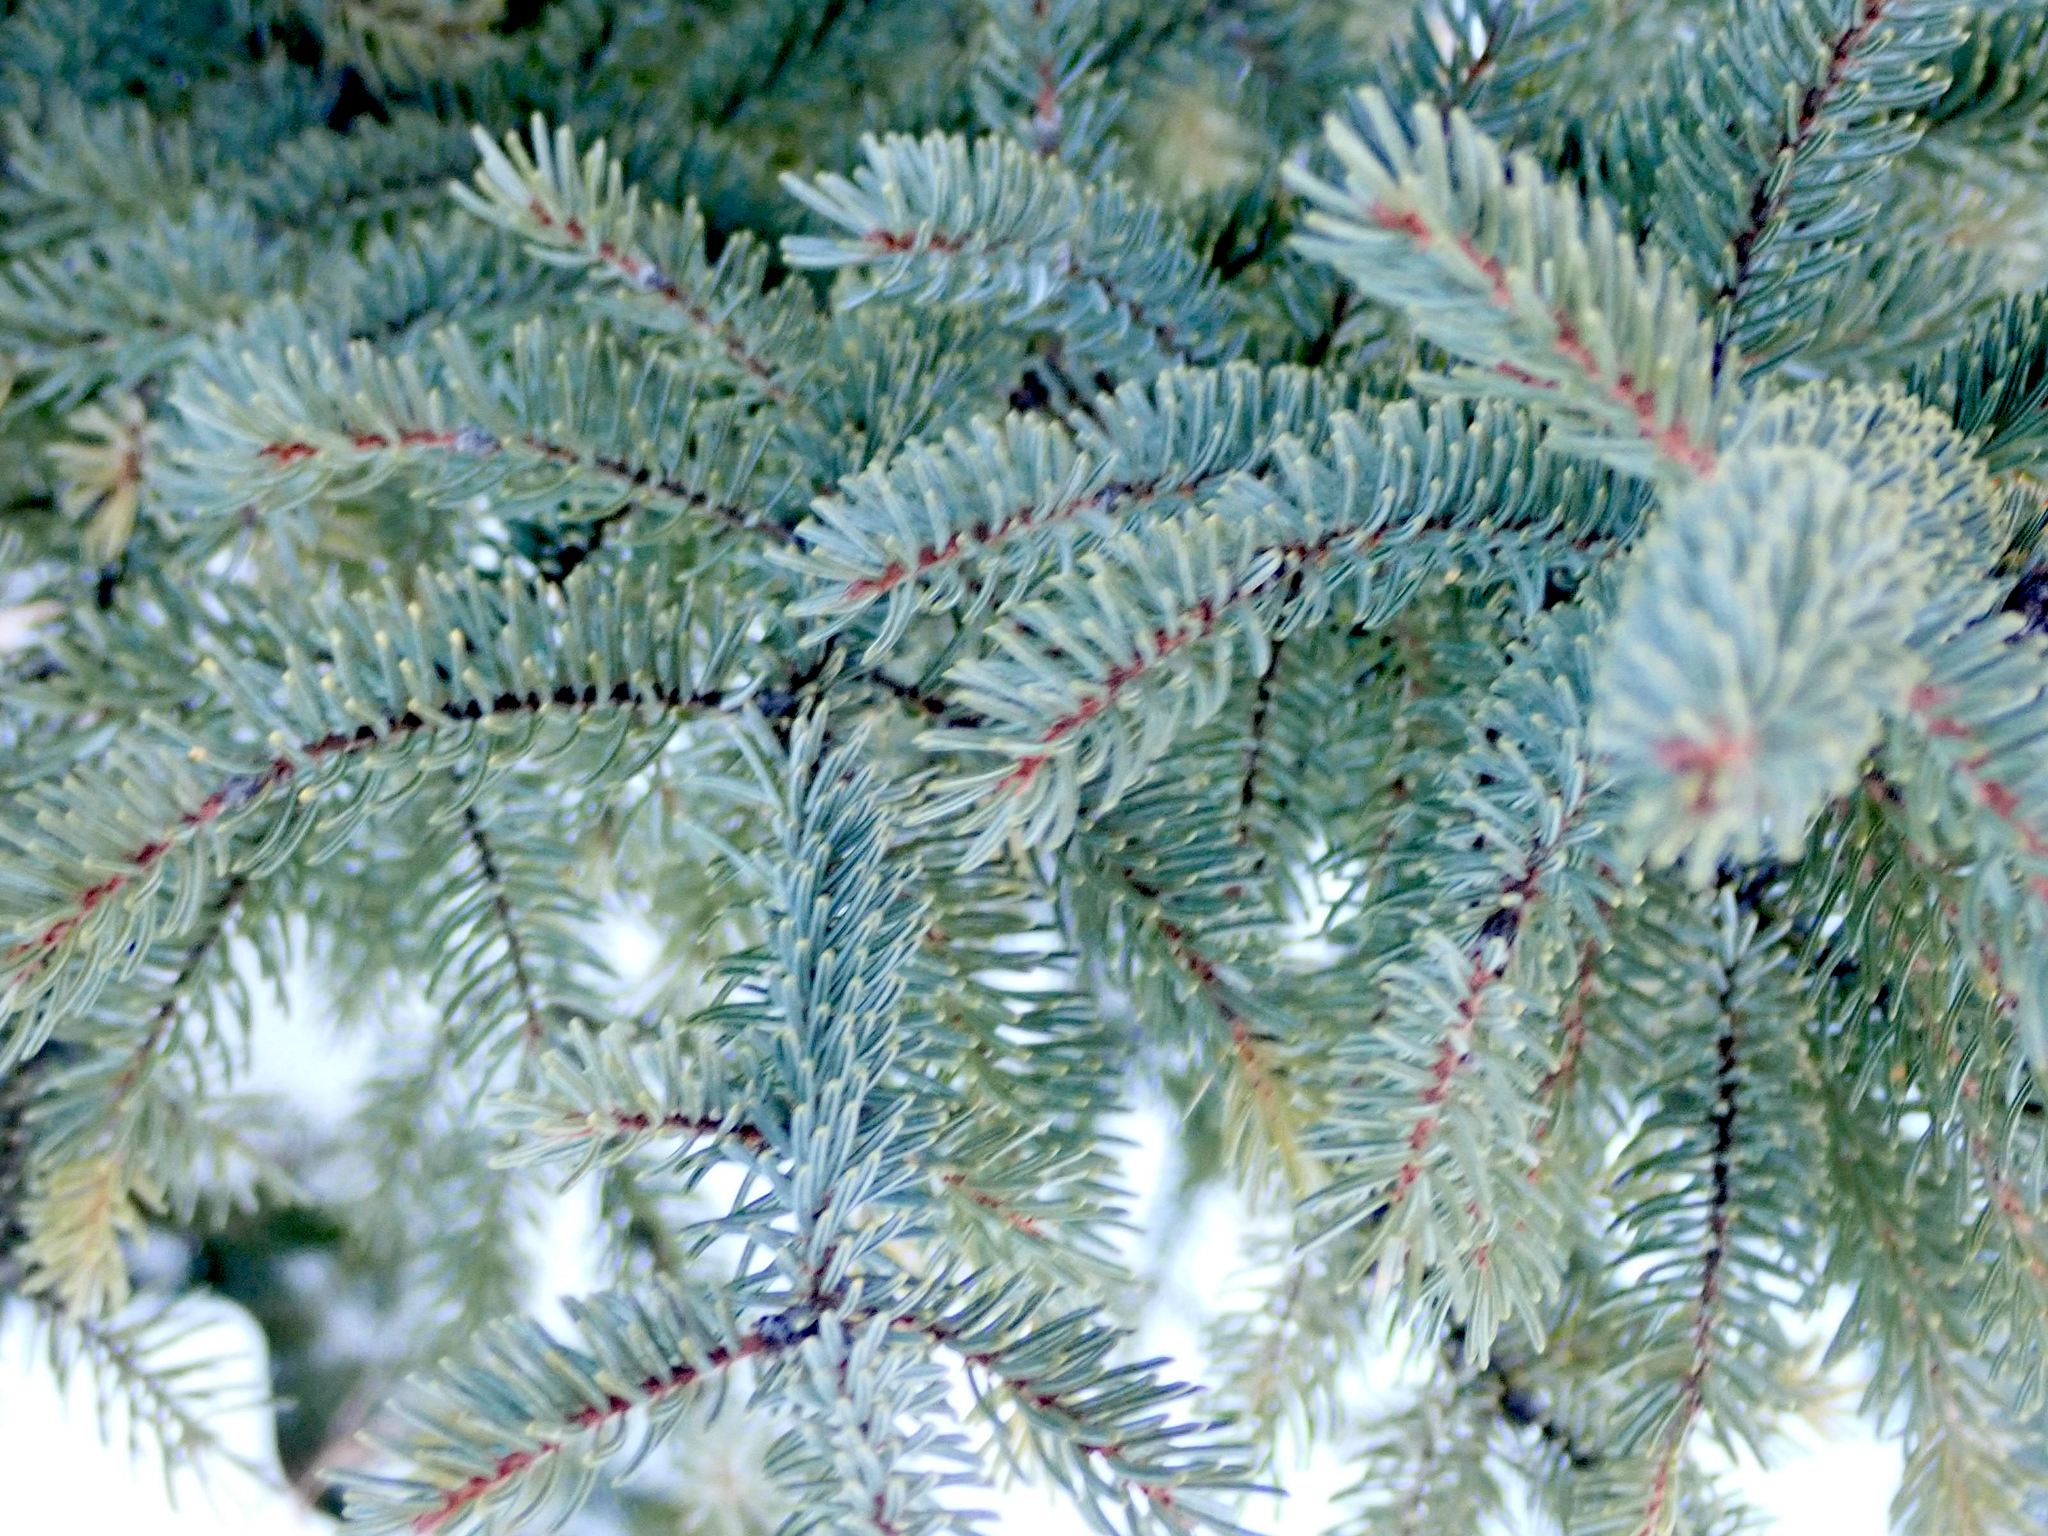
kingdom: Plantae
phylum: Tracheophyta
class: Pinopsida
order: Pinales
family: Pinaceae
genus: Picea
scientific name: Picea glauca
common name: White spruce
